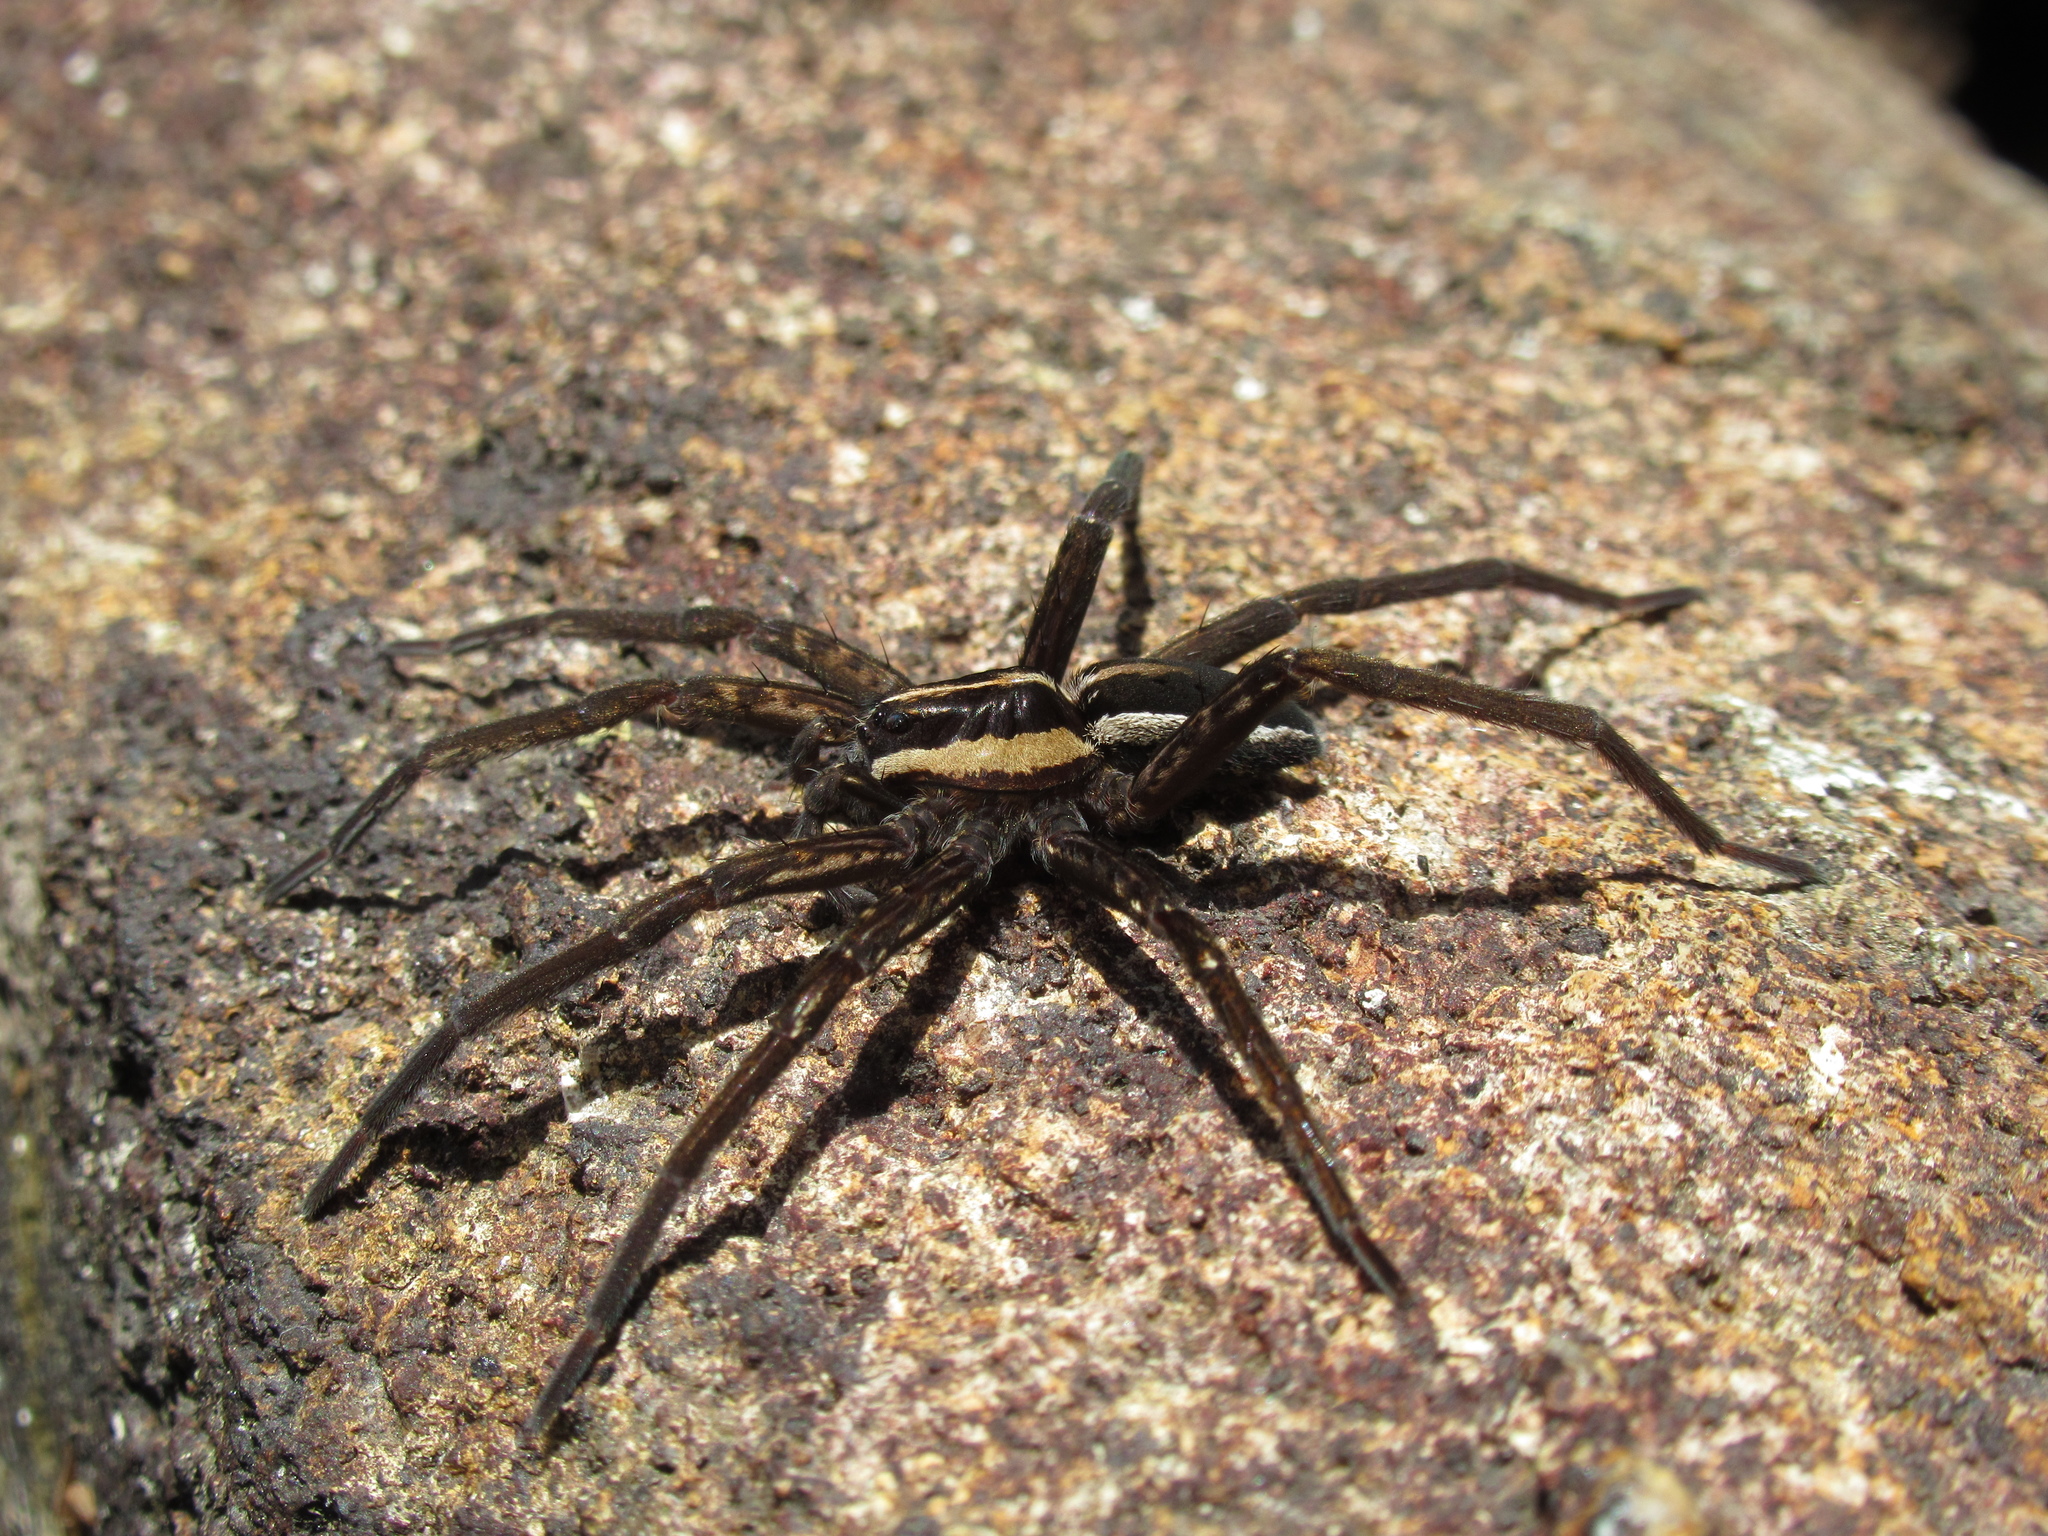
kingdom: Animalia
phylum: Arthropoda
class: Arachnida
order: Araneae
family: Pisauridae
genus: Dolomedes
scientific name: Dolomedes minor
